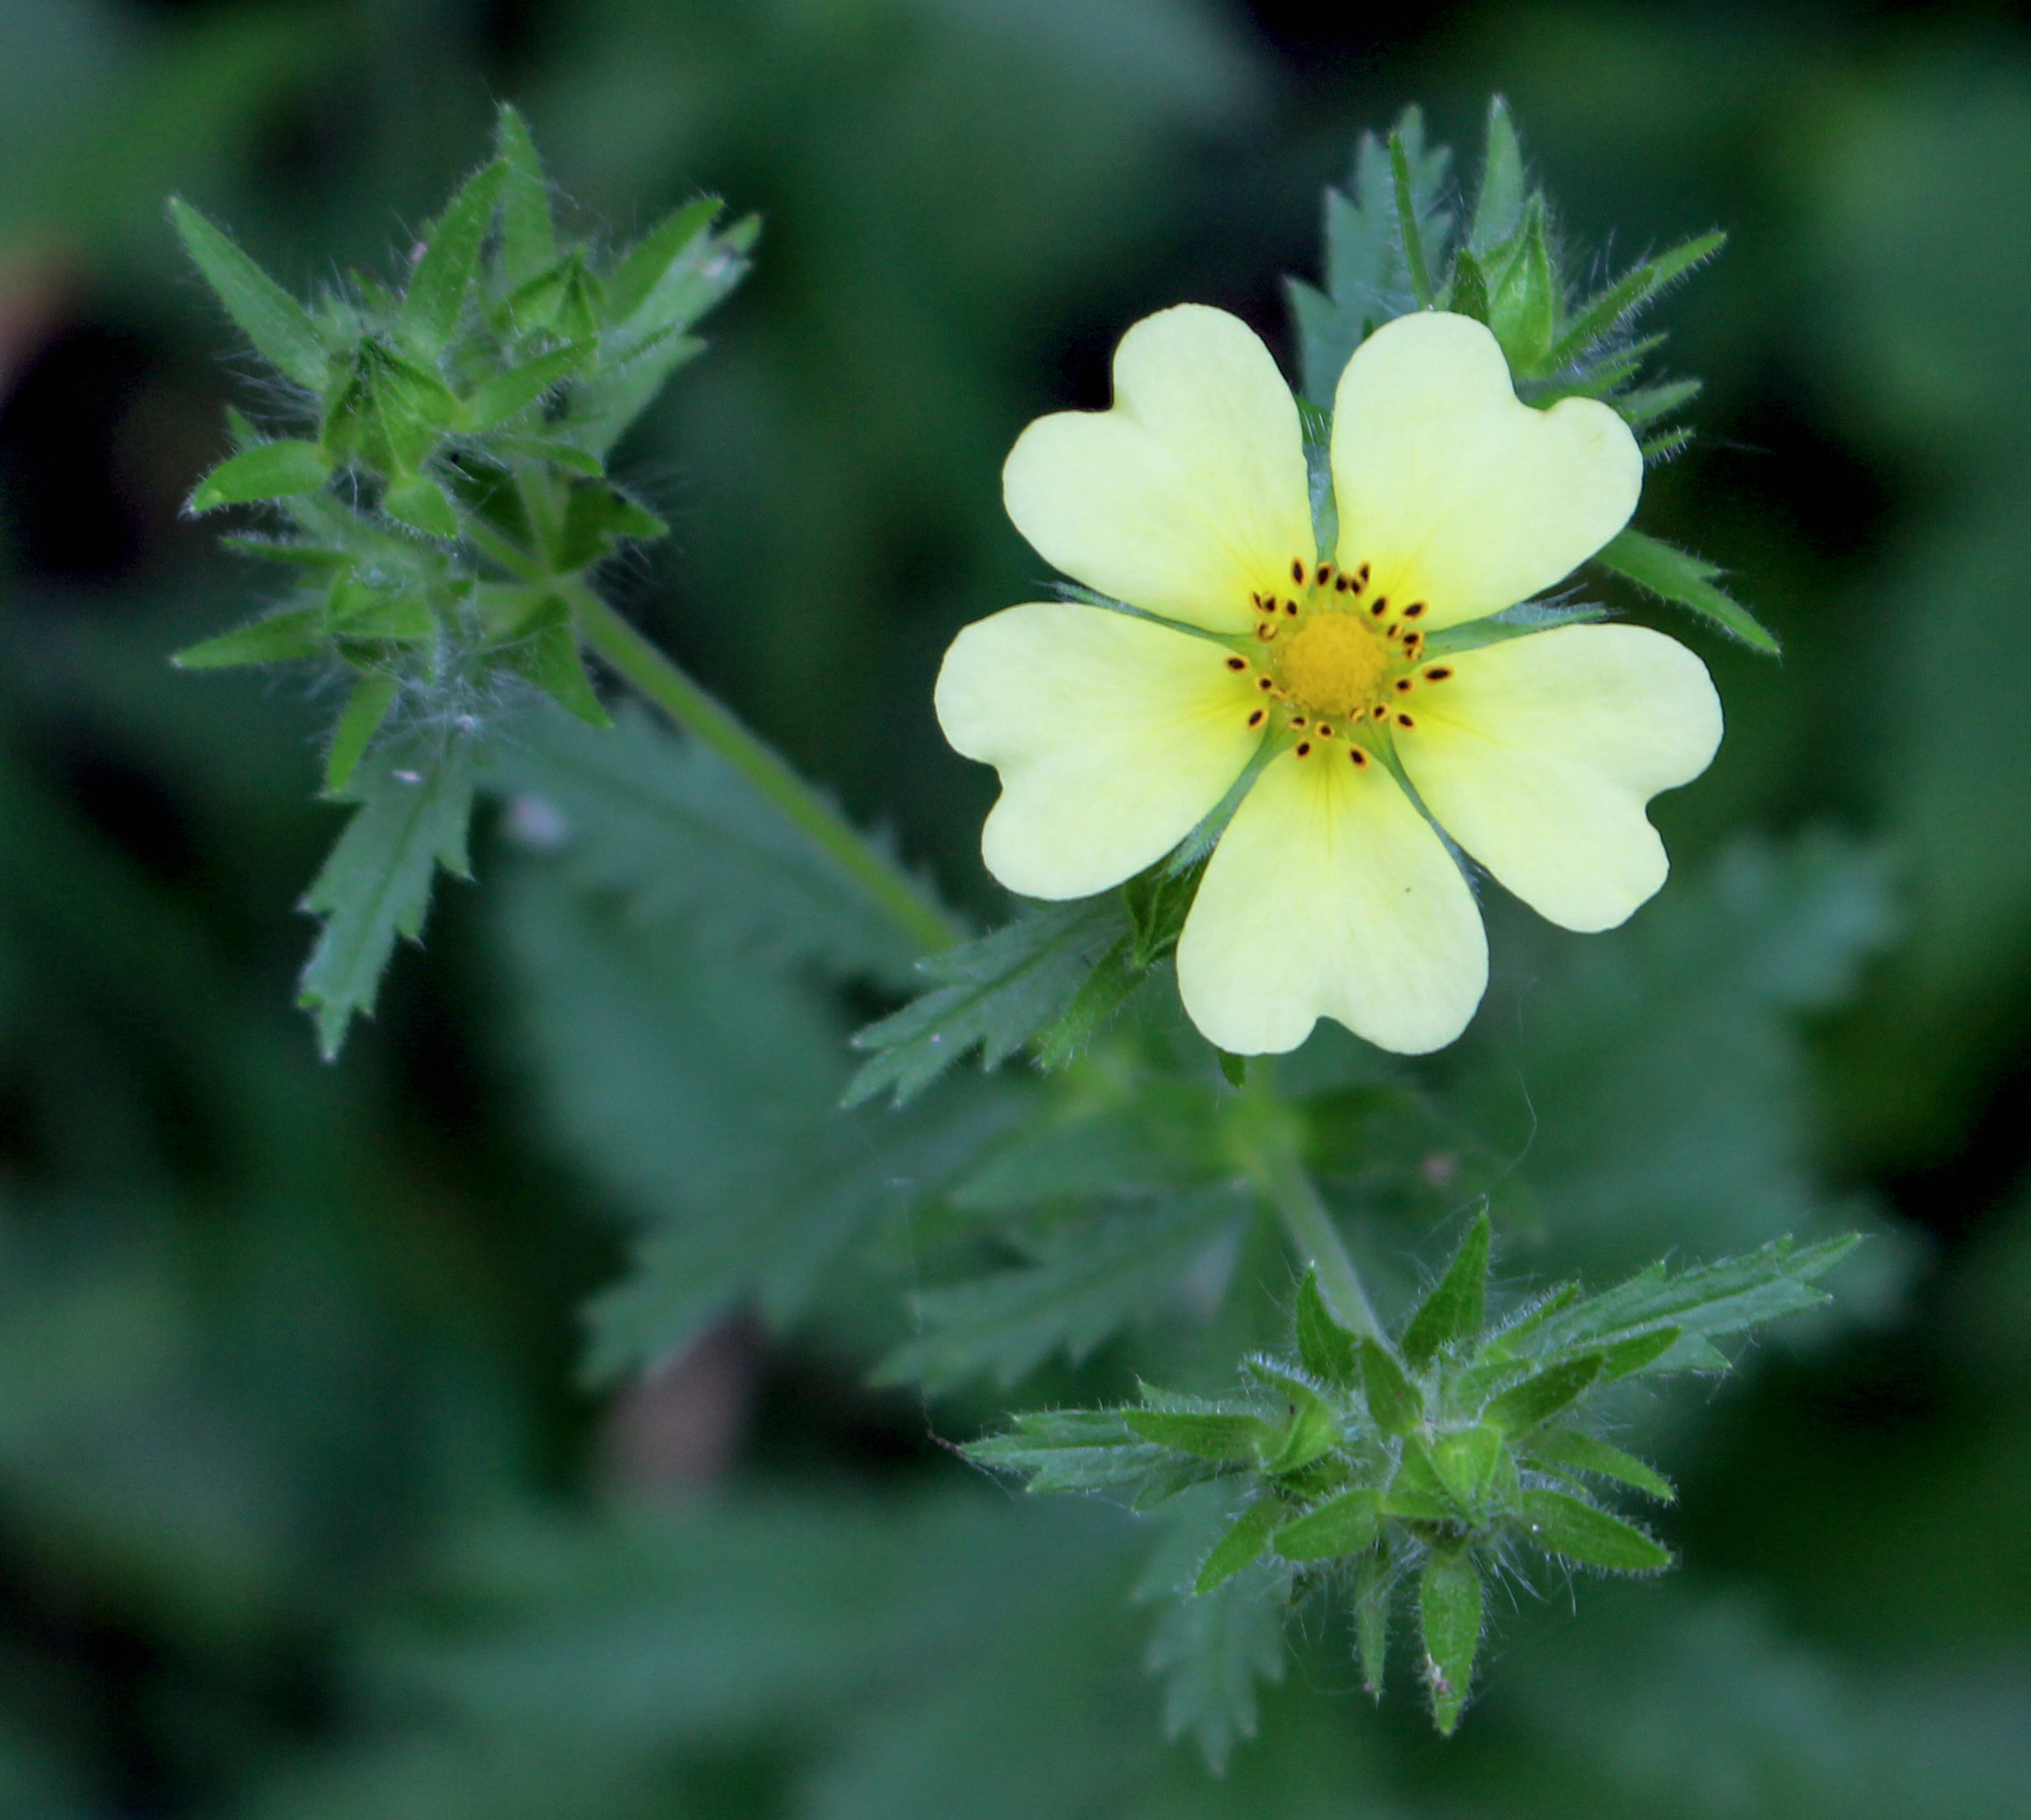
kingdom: Plantae
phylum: Tracheophyta
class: Magnoliopsida
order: Rosales
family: Rosaceae
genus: Potentilla
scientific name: Potentilla recta
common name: Sulphur cinquefoil
